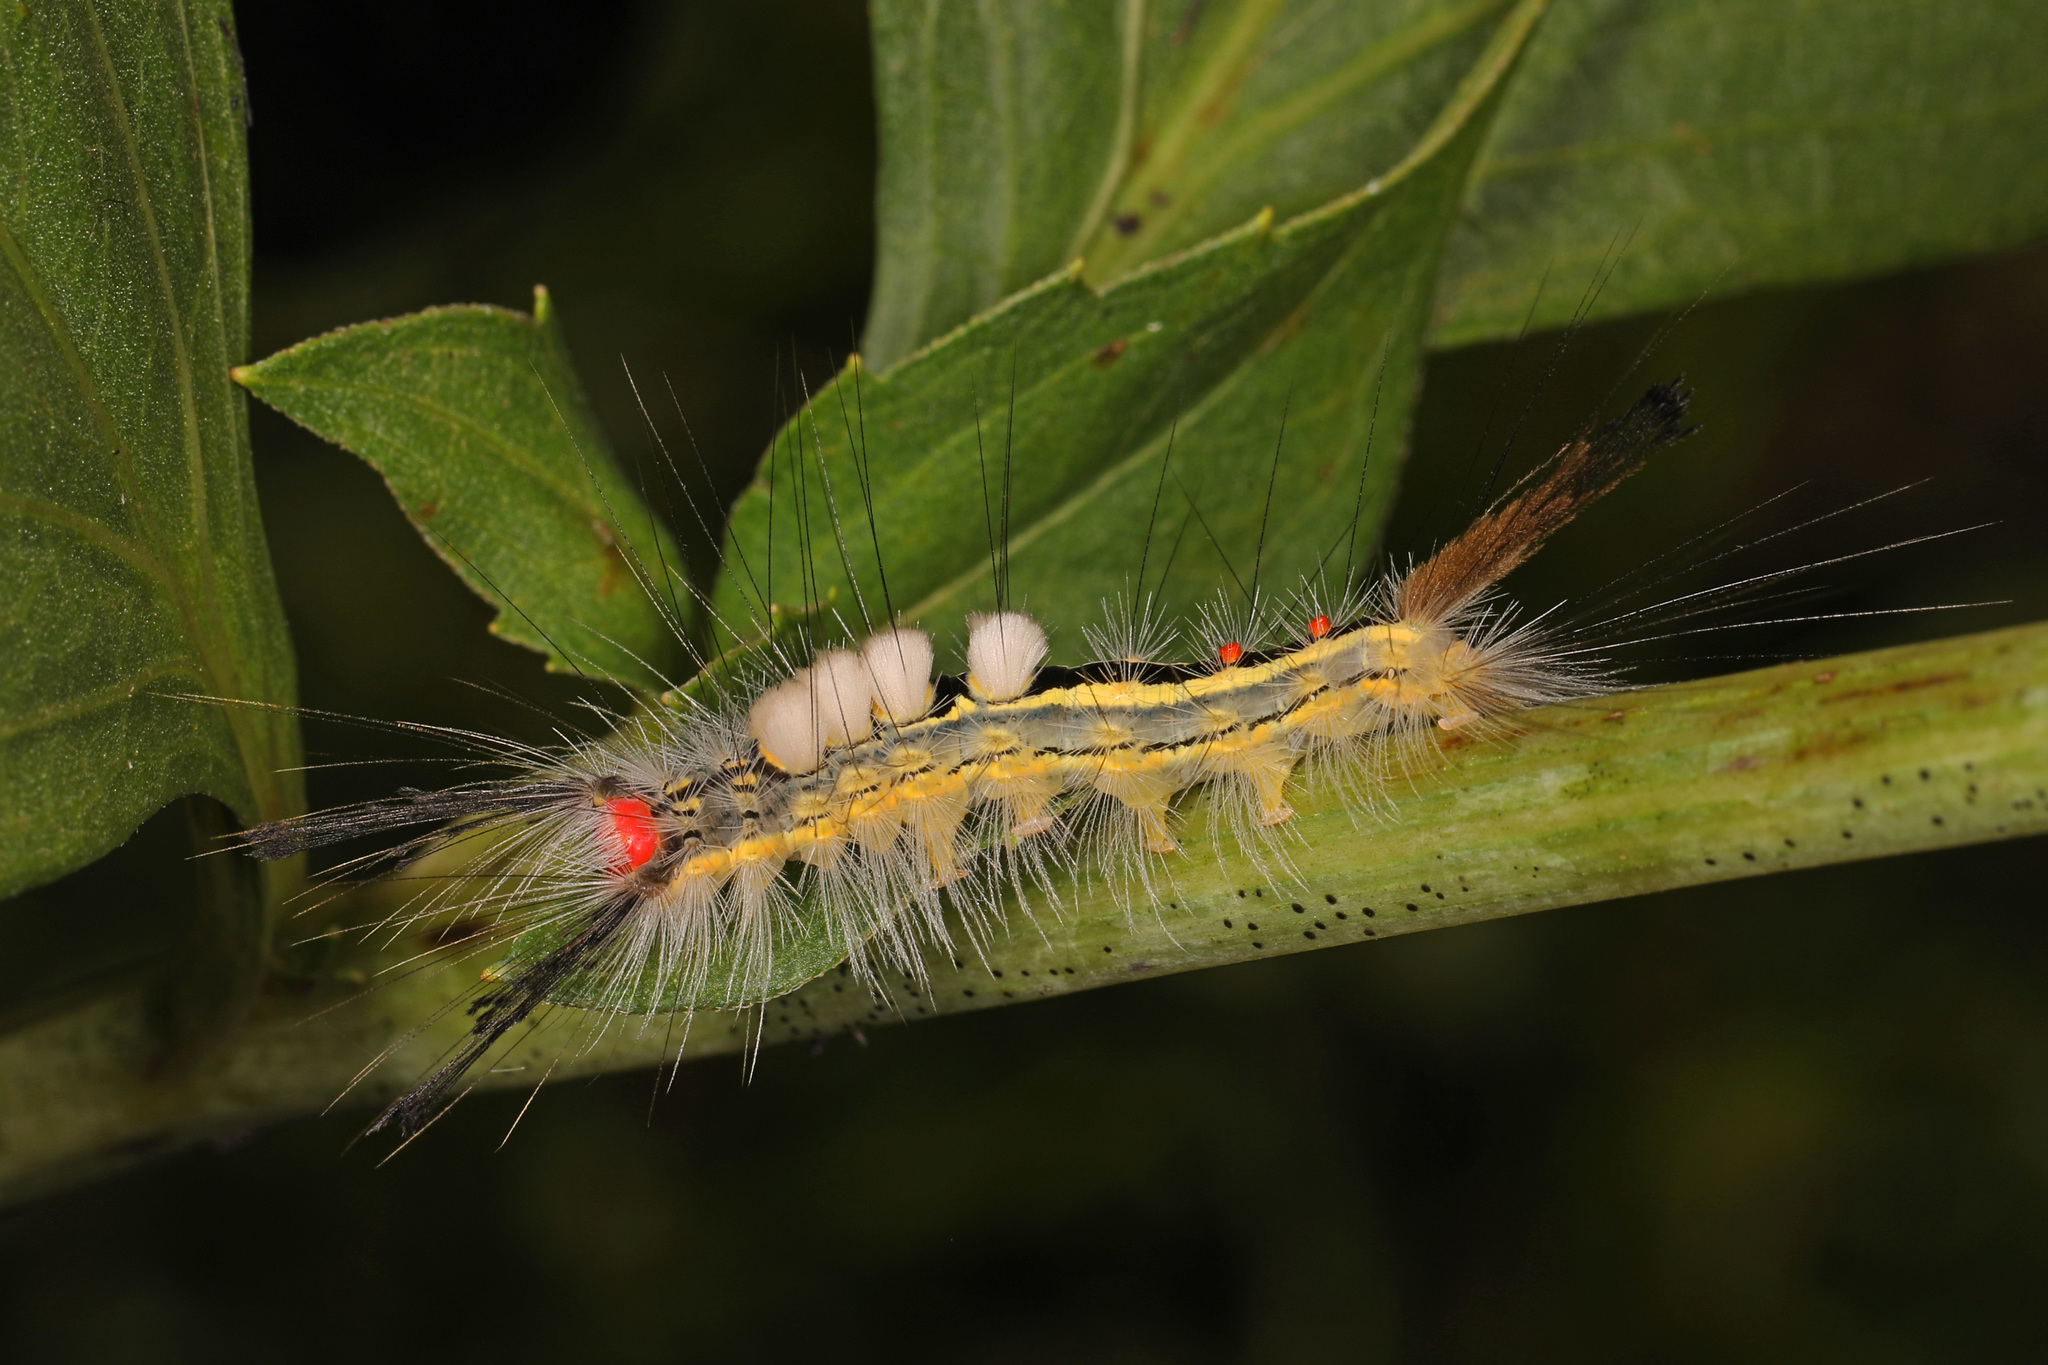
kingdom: Animalia
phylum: Arthropoda
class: Insecta
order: Lepidoptera
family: Erebidae
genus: Orgyia
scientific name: Orgyia leucostigma
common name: White-marked tussock moth
